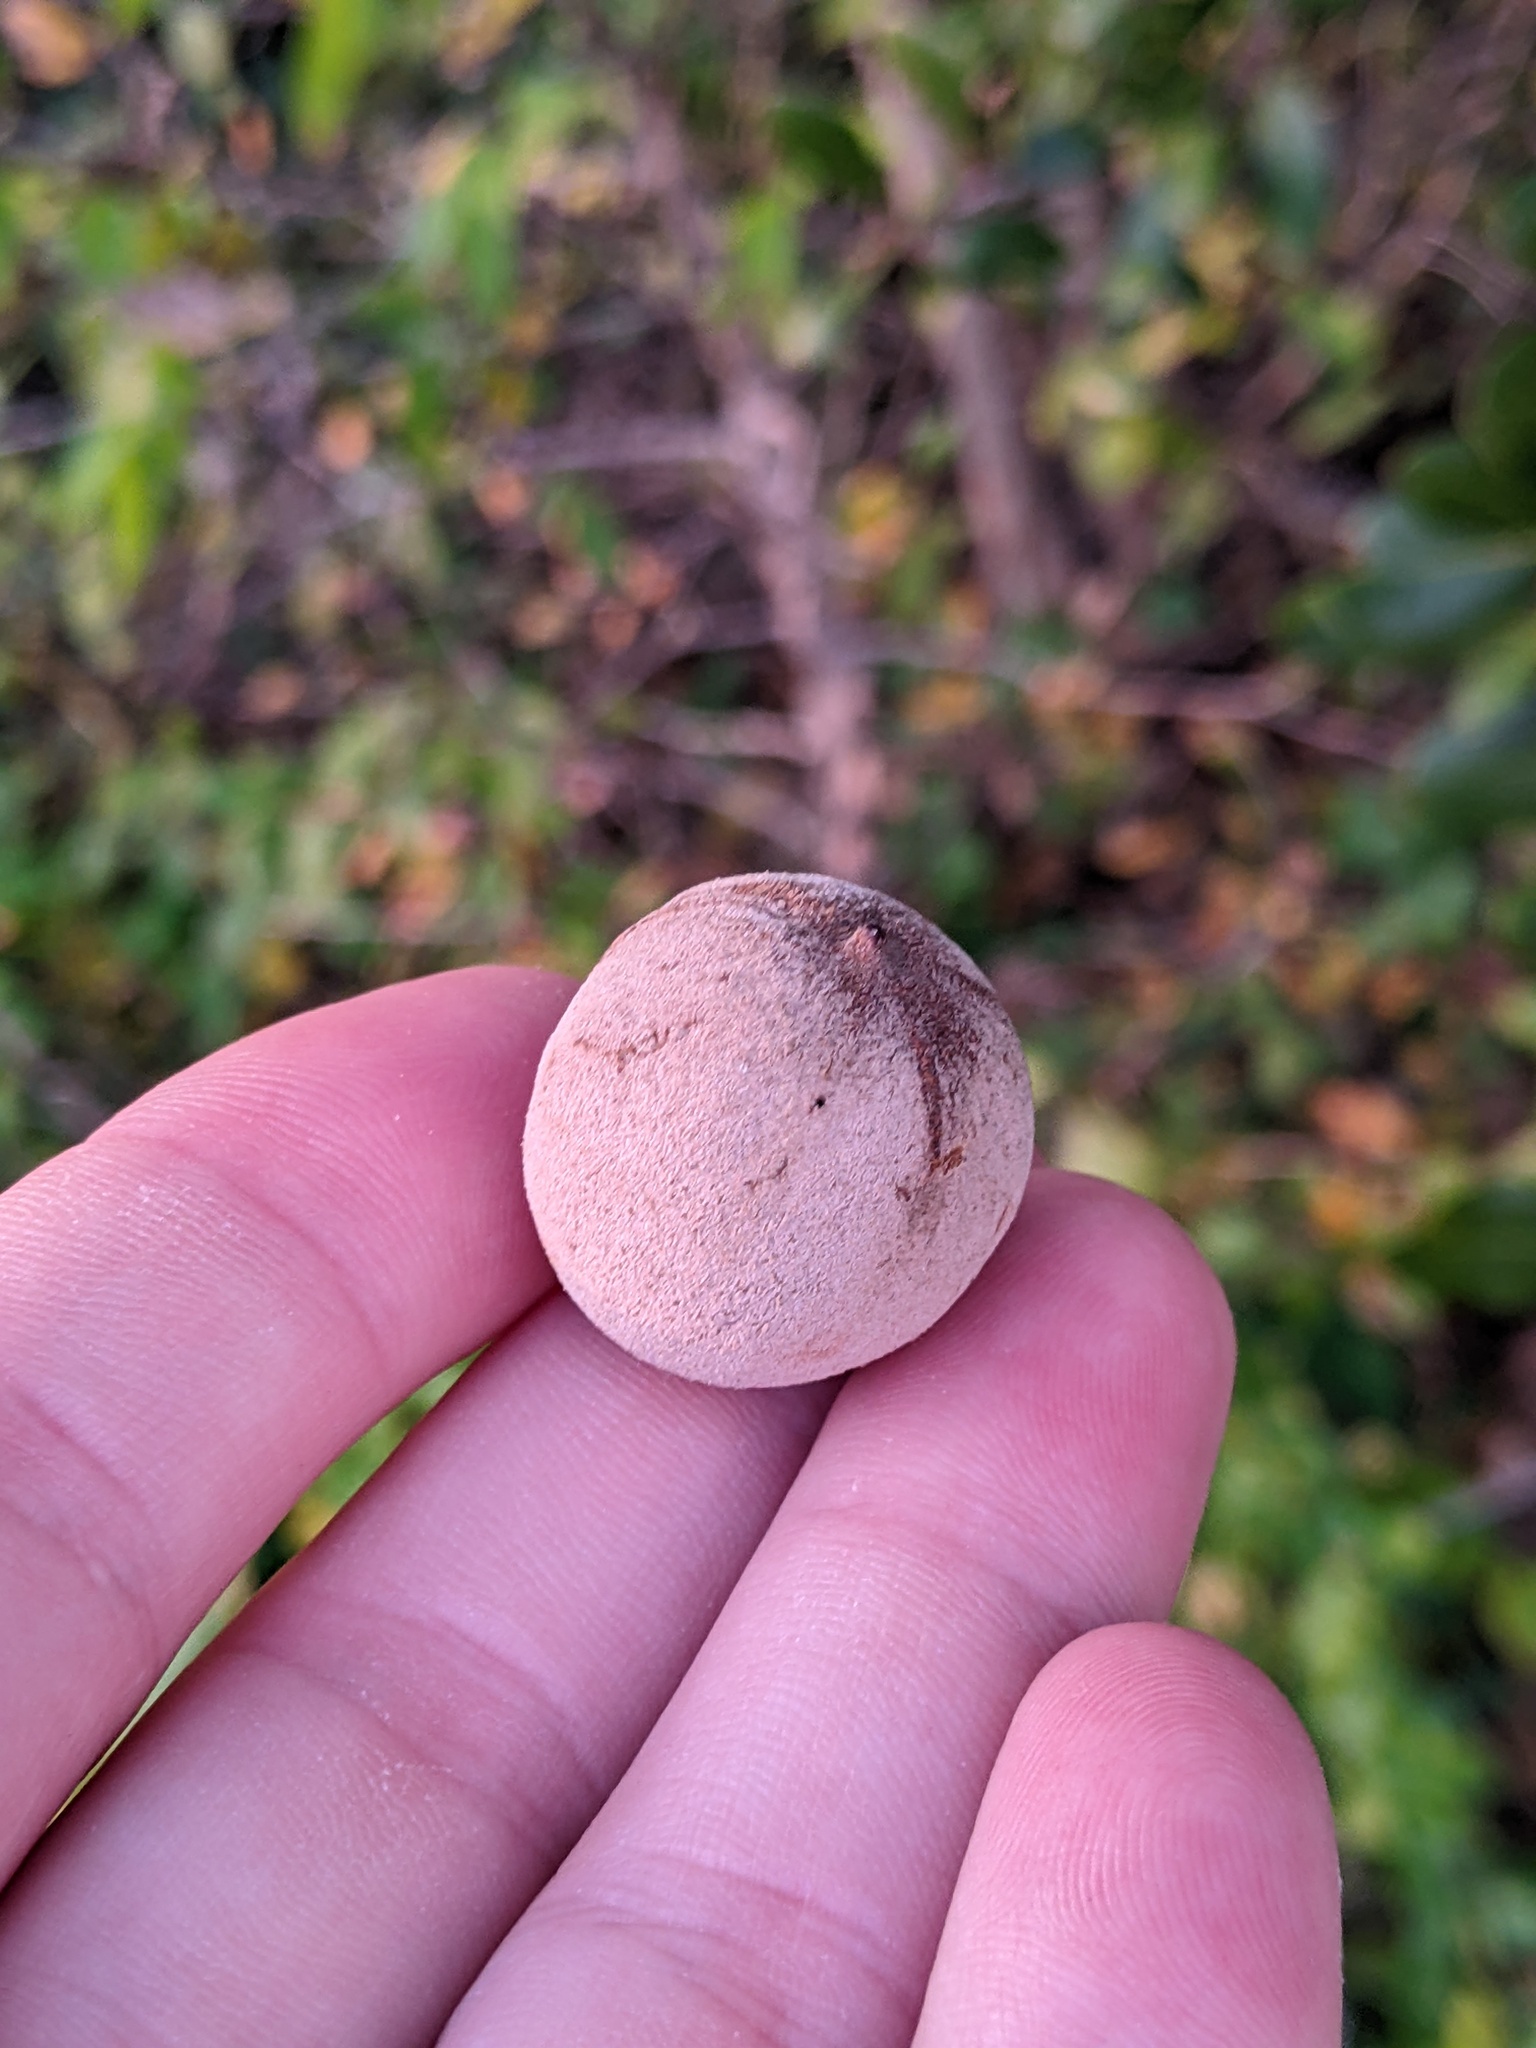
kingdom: Animalia
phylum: Arthropoda
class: Insecta
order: Hymenoptera
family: Cynipidae
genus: Disholcaspis
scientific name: Disholcaspis
